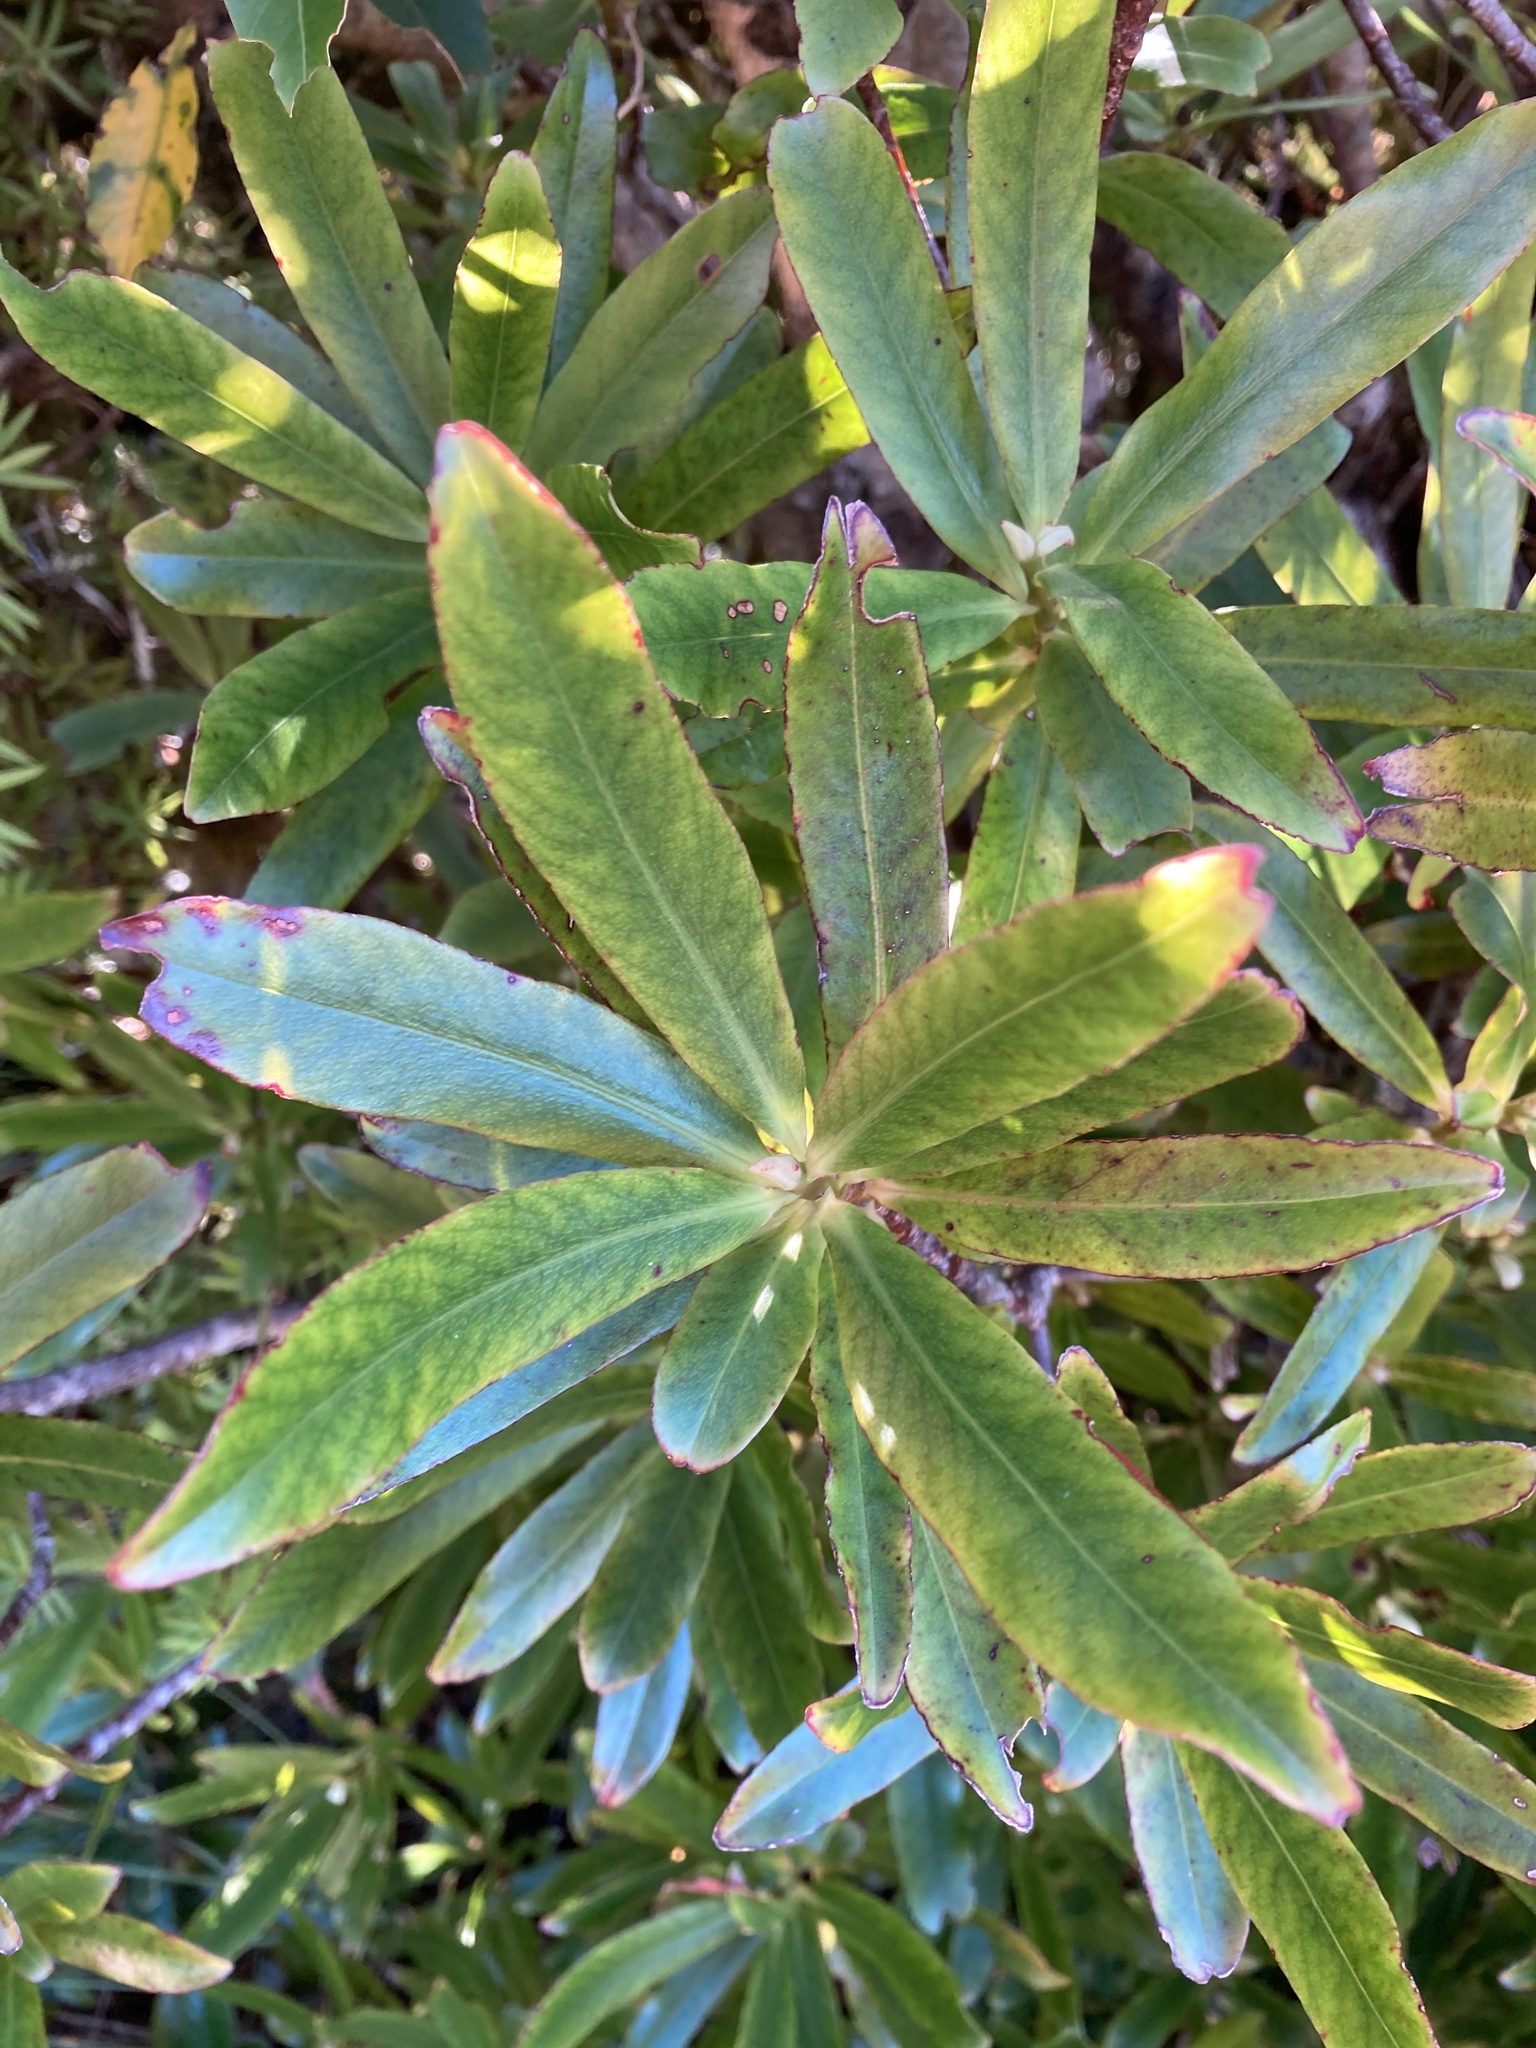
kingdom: Plantae
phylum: Tracheophyta
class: Magnoliopsida
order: Ericales
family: Primulaceae
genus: Myrsine
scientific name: Myrsine salicina
